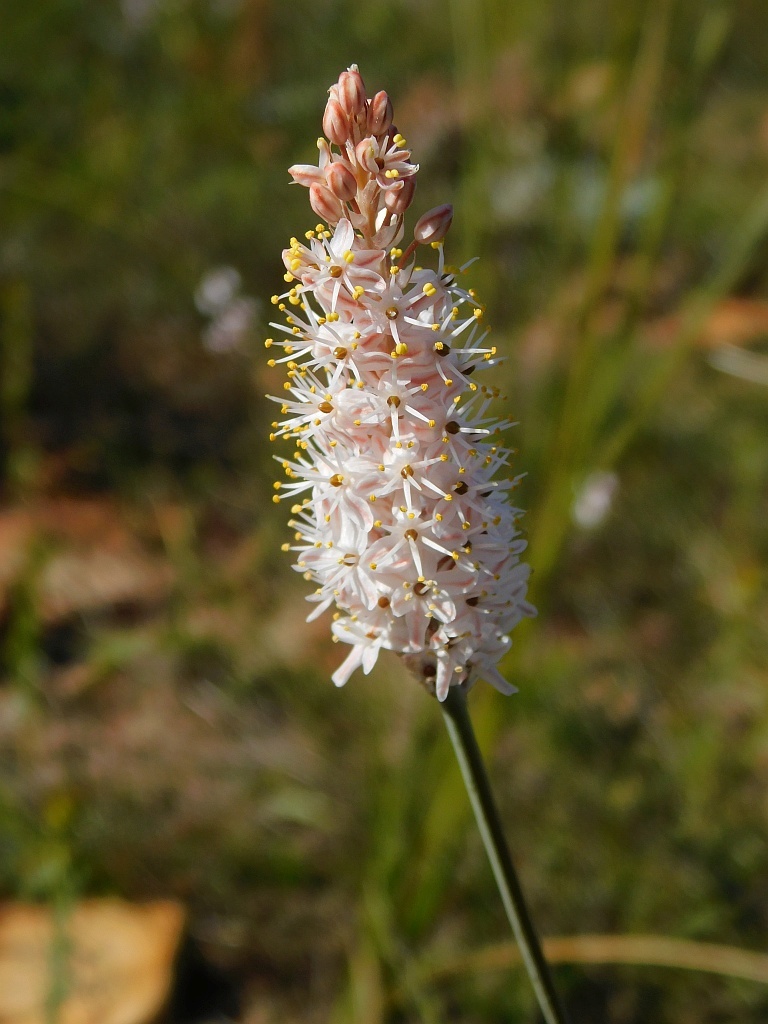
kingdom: Plantae
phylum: Tracheophyta
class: Liliopsida
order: Asparagales
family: Asphodelaceae
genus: Bulbinella
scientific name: Bulbinella cauda-felis
